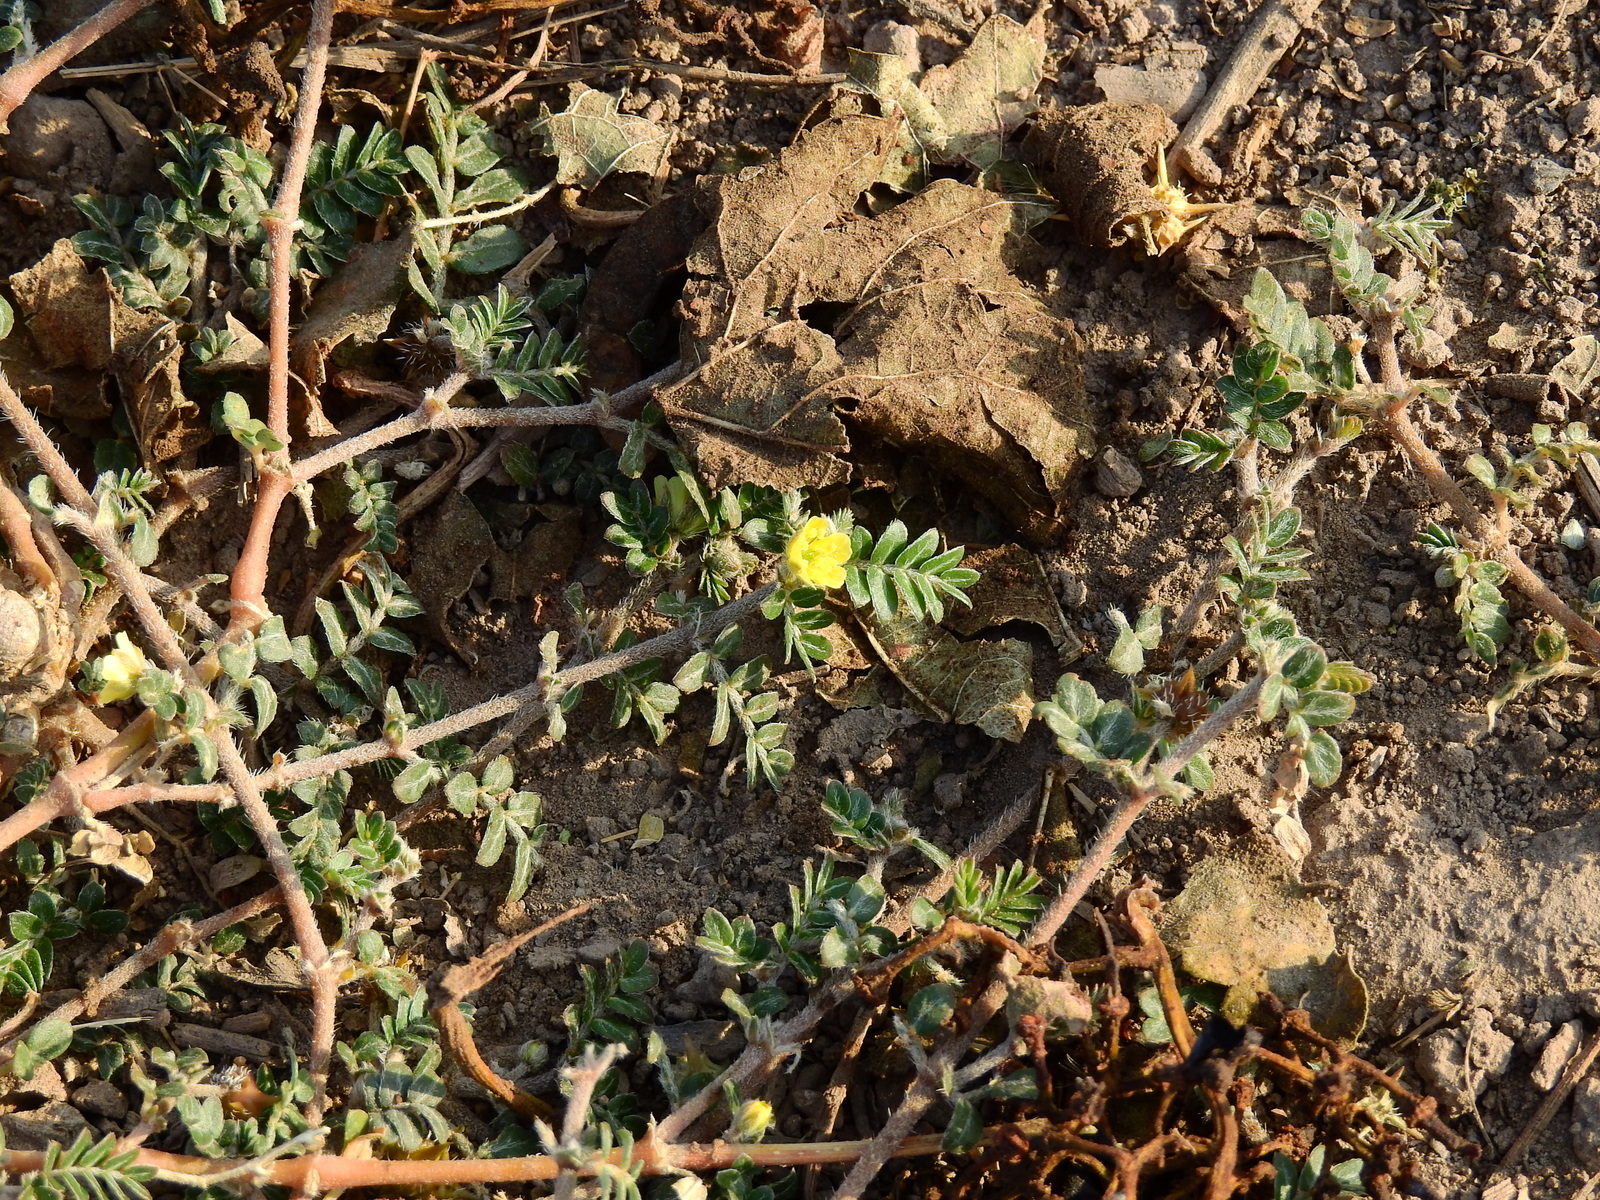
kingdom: Plantae
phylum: Tracheophyta
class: Magnoliopsida
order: Zygophyllales
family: Zygophyllaceae
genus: Tribulus
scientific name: Tribulus terrestris
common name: Puncturevine
